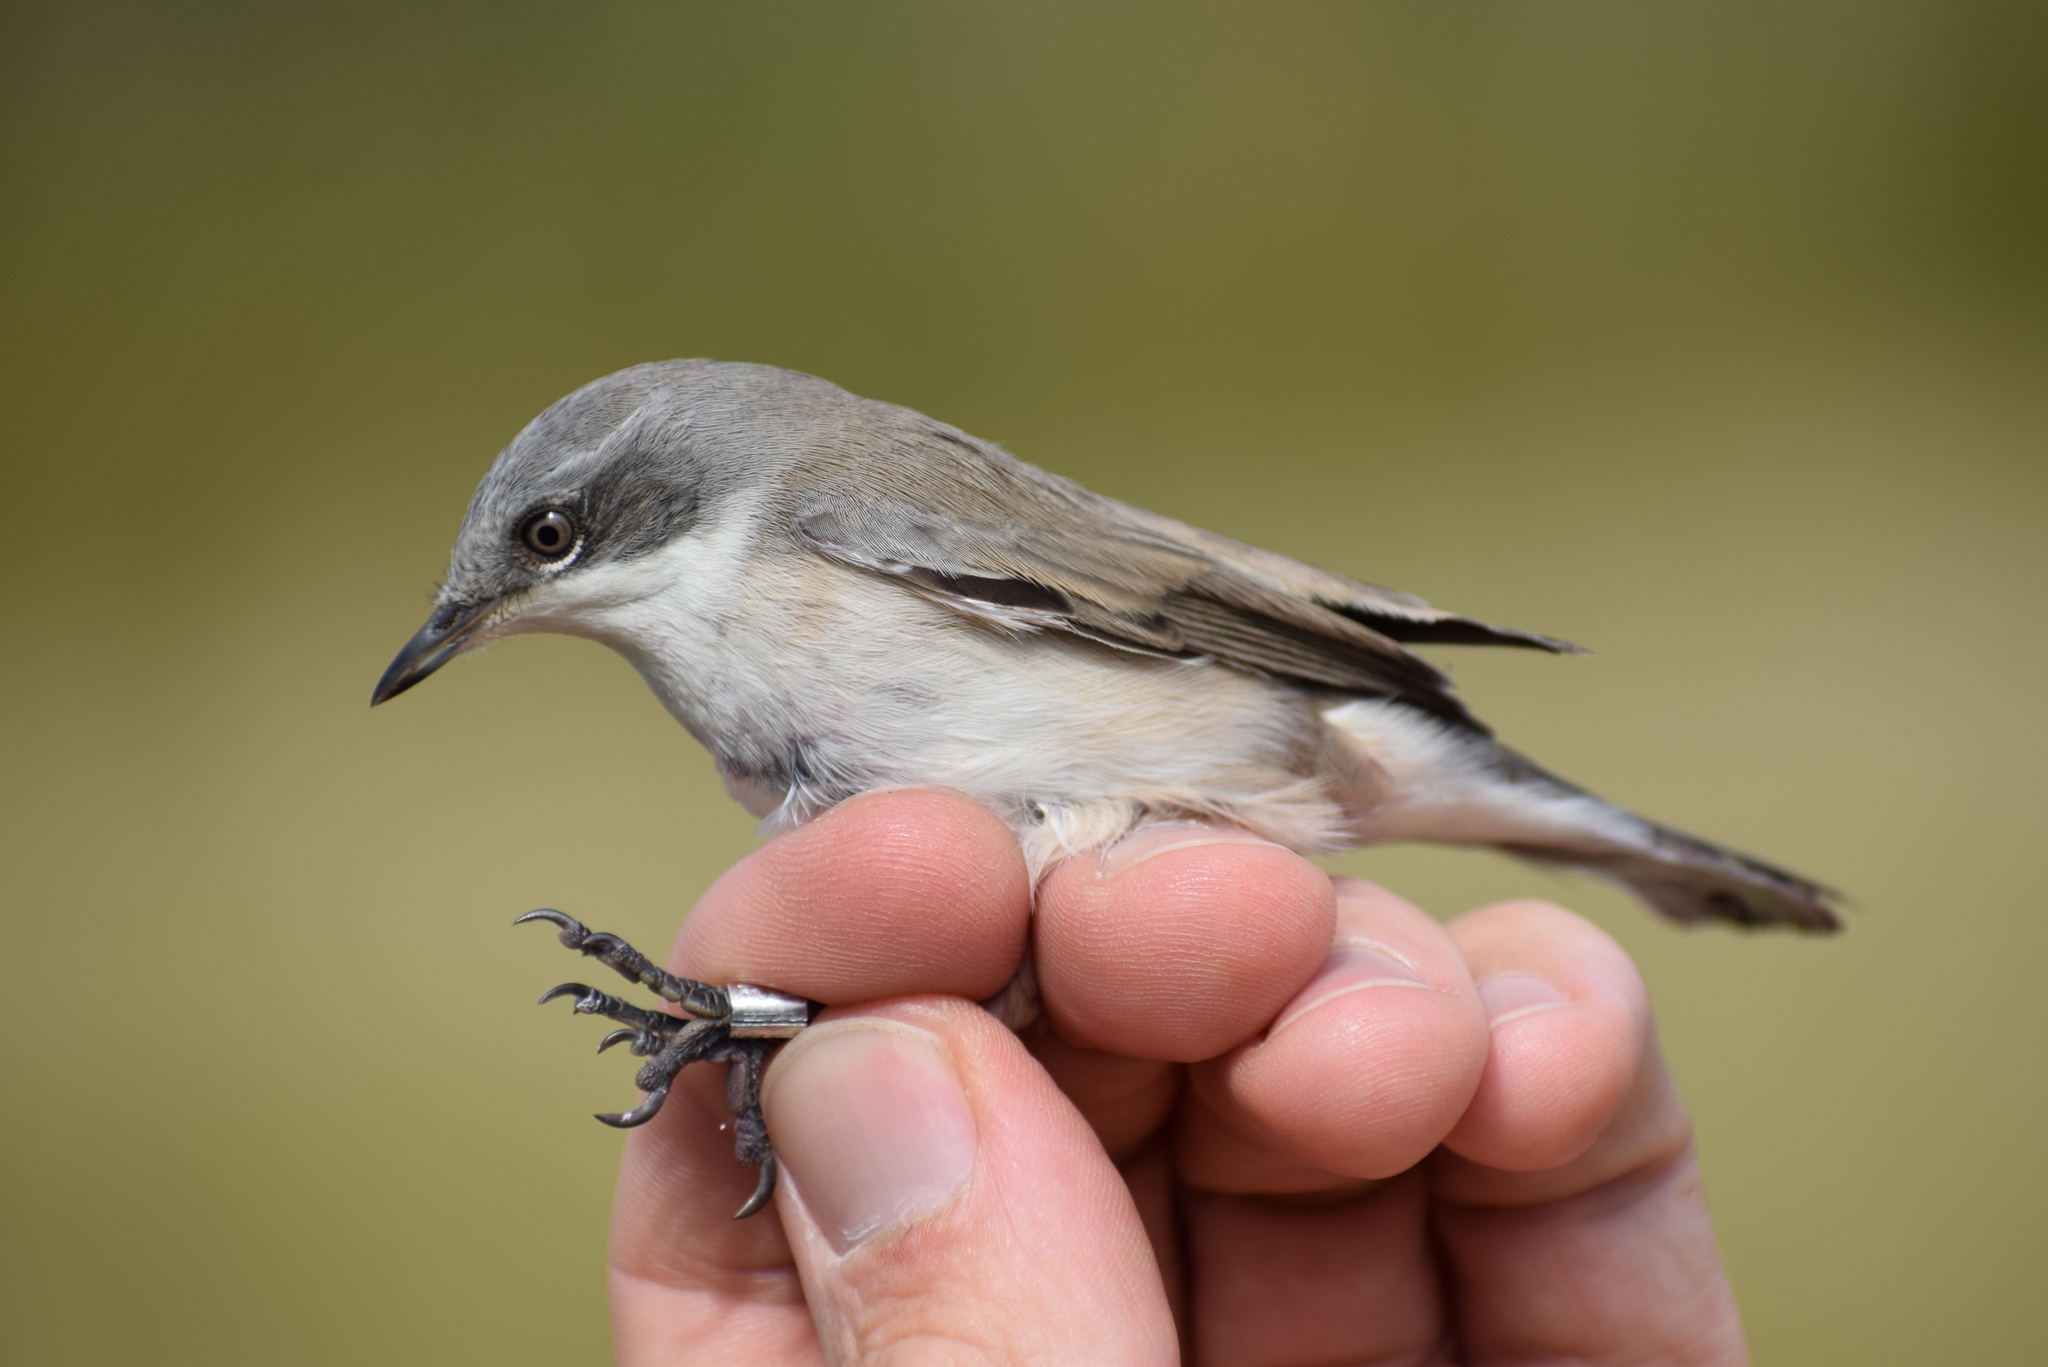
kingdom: Animalia
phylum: Chordata
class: Aves
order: Passeriformes
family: Sylviidae
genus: Sylvia
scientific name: Sylvia curruca
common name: Lesser whitethroat
